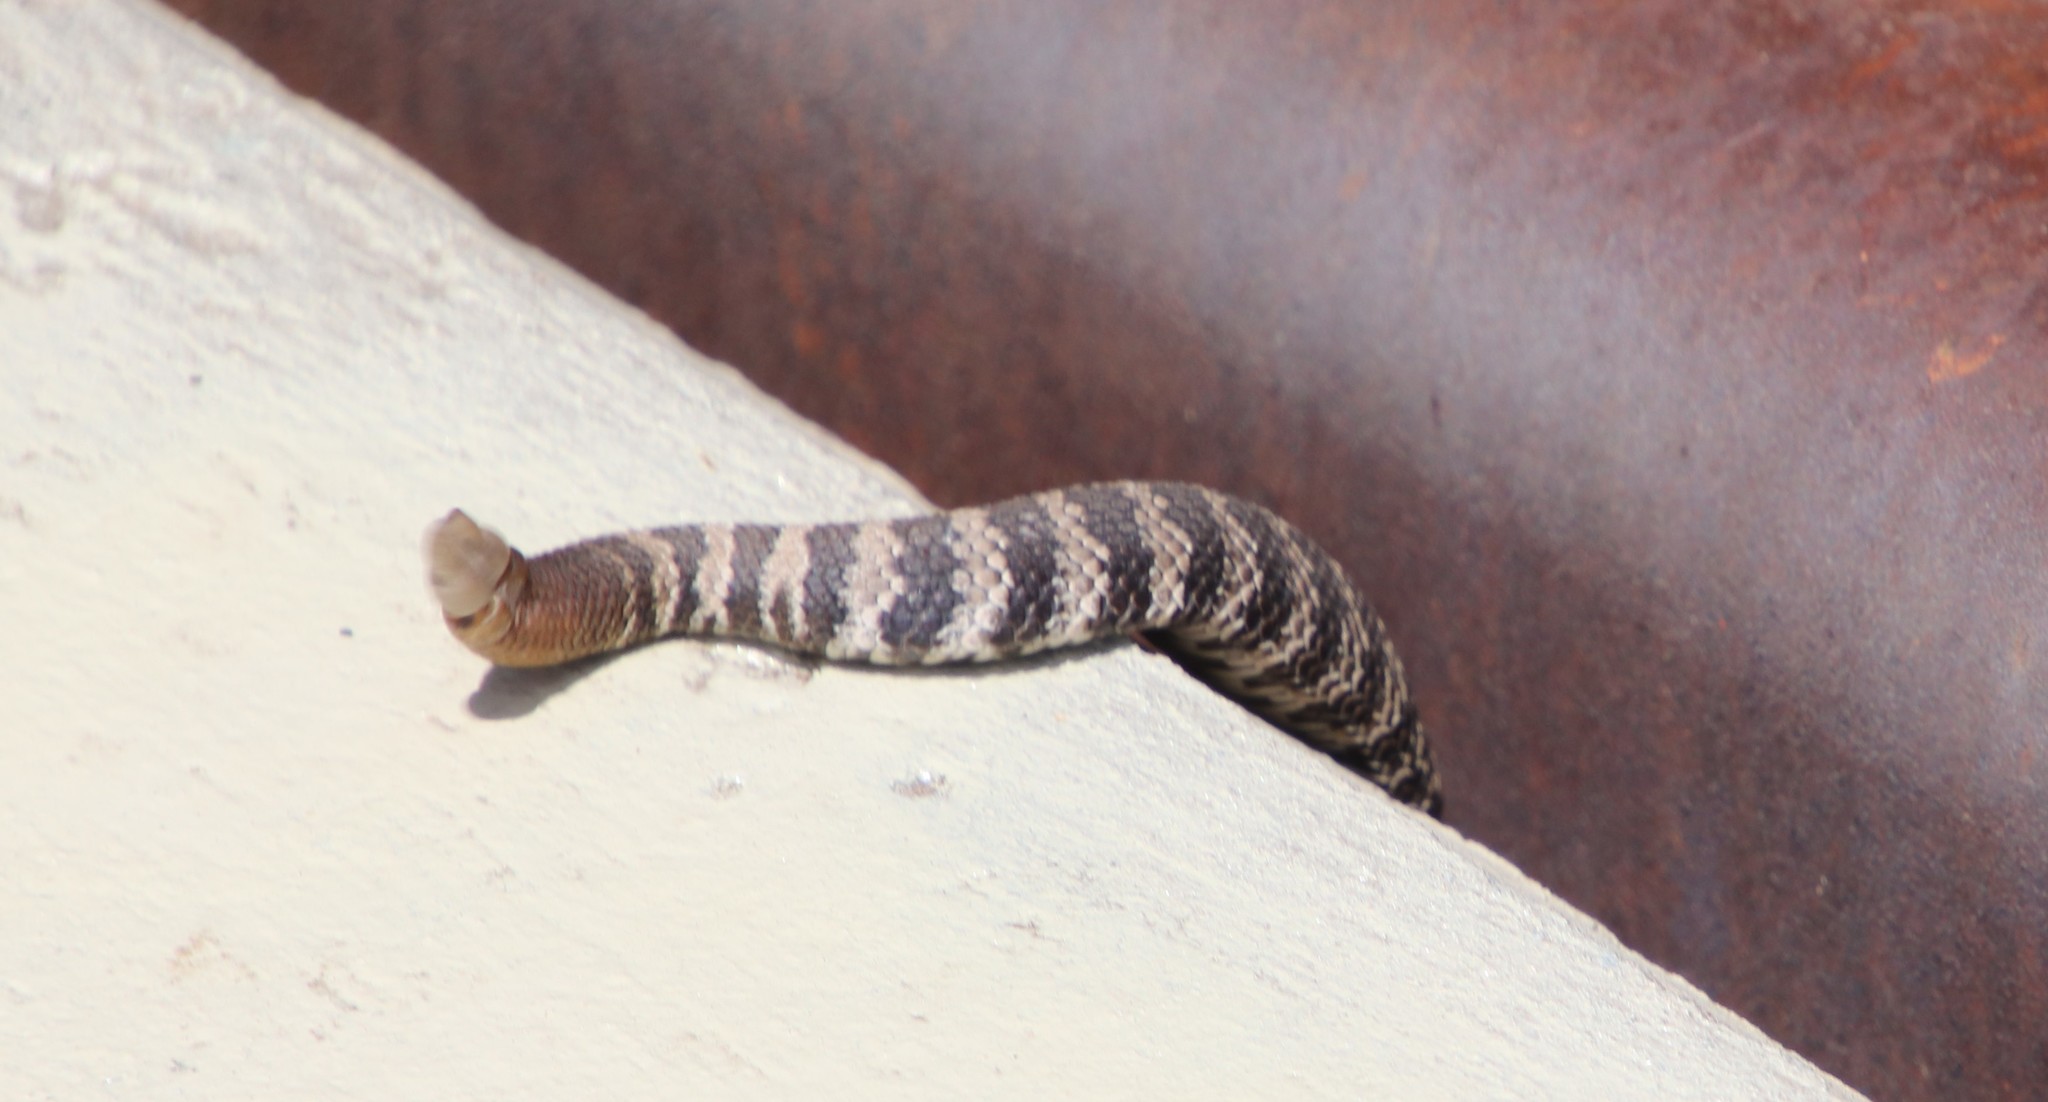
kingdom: Animalia
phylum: Chordata
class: Squamata
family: Viperidae
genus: Crotalus
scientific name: Crotalus oreganus
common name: Abyssus
